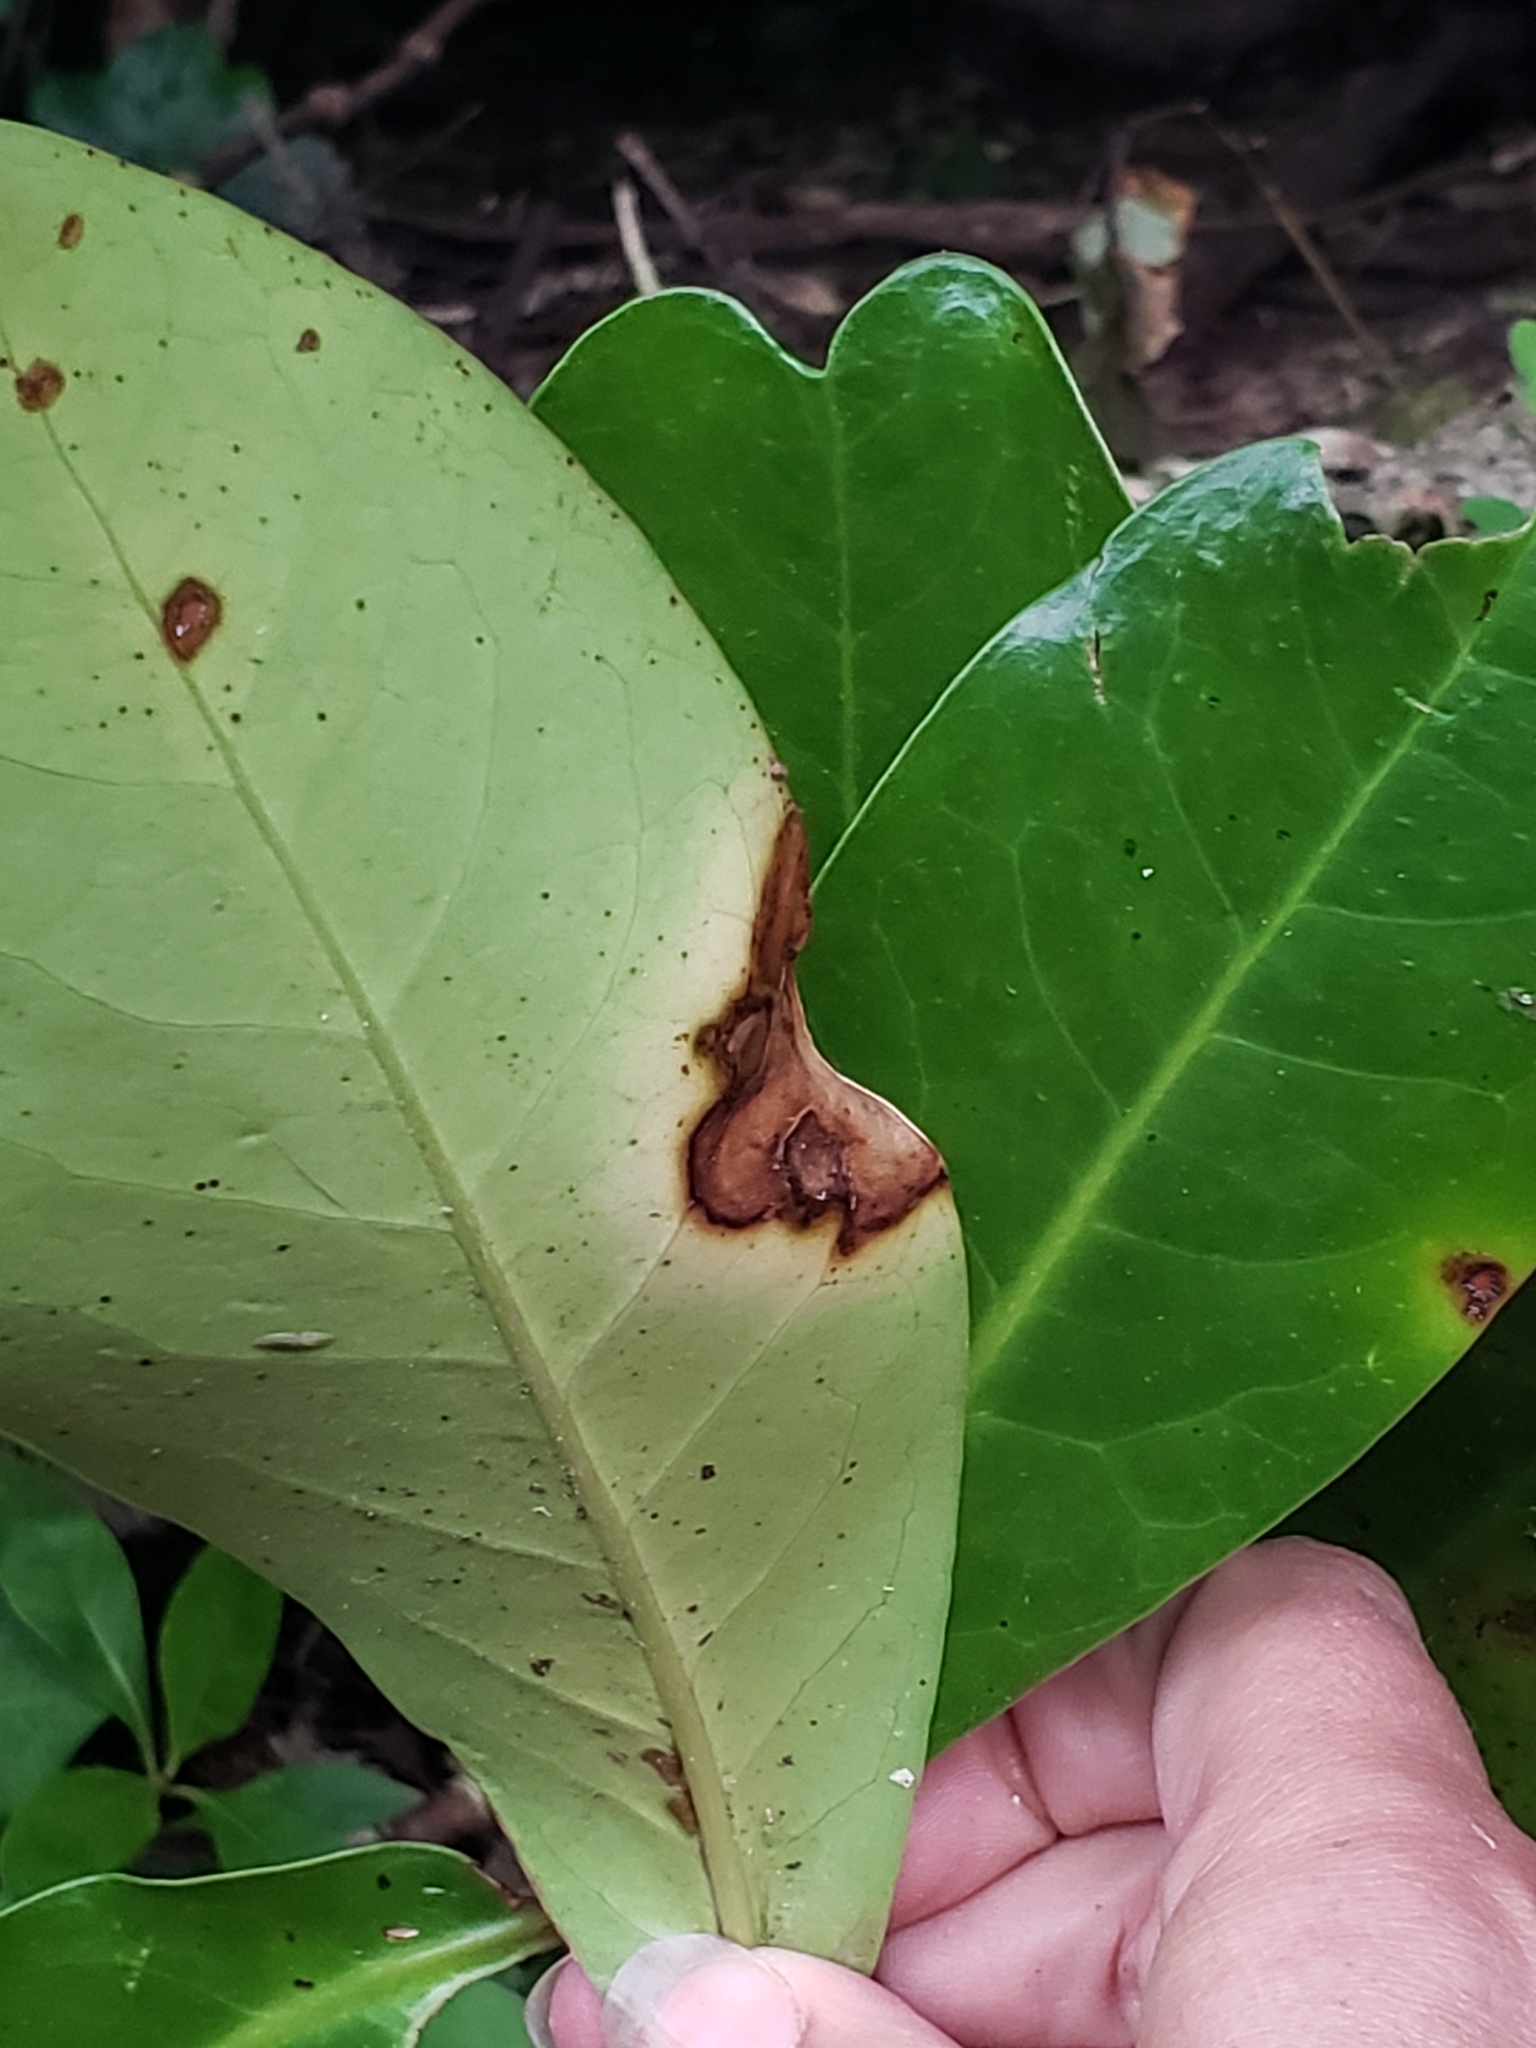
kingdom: Plantae
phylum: Tracheophyta
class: Magnoliopsida
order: Cucurbitales
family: Corynocarpaceae
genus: Corynocarpus
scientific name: Corynocarpus laevigatus
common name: New zealand laurel
